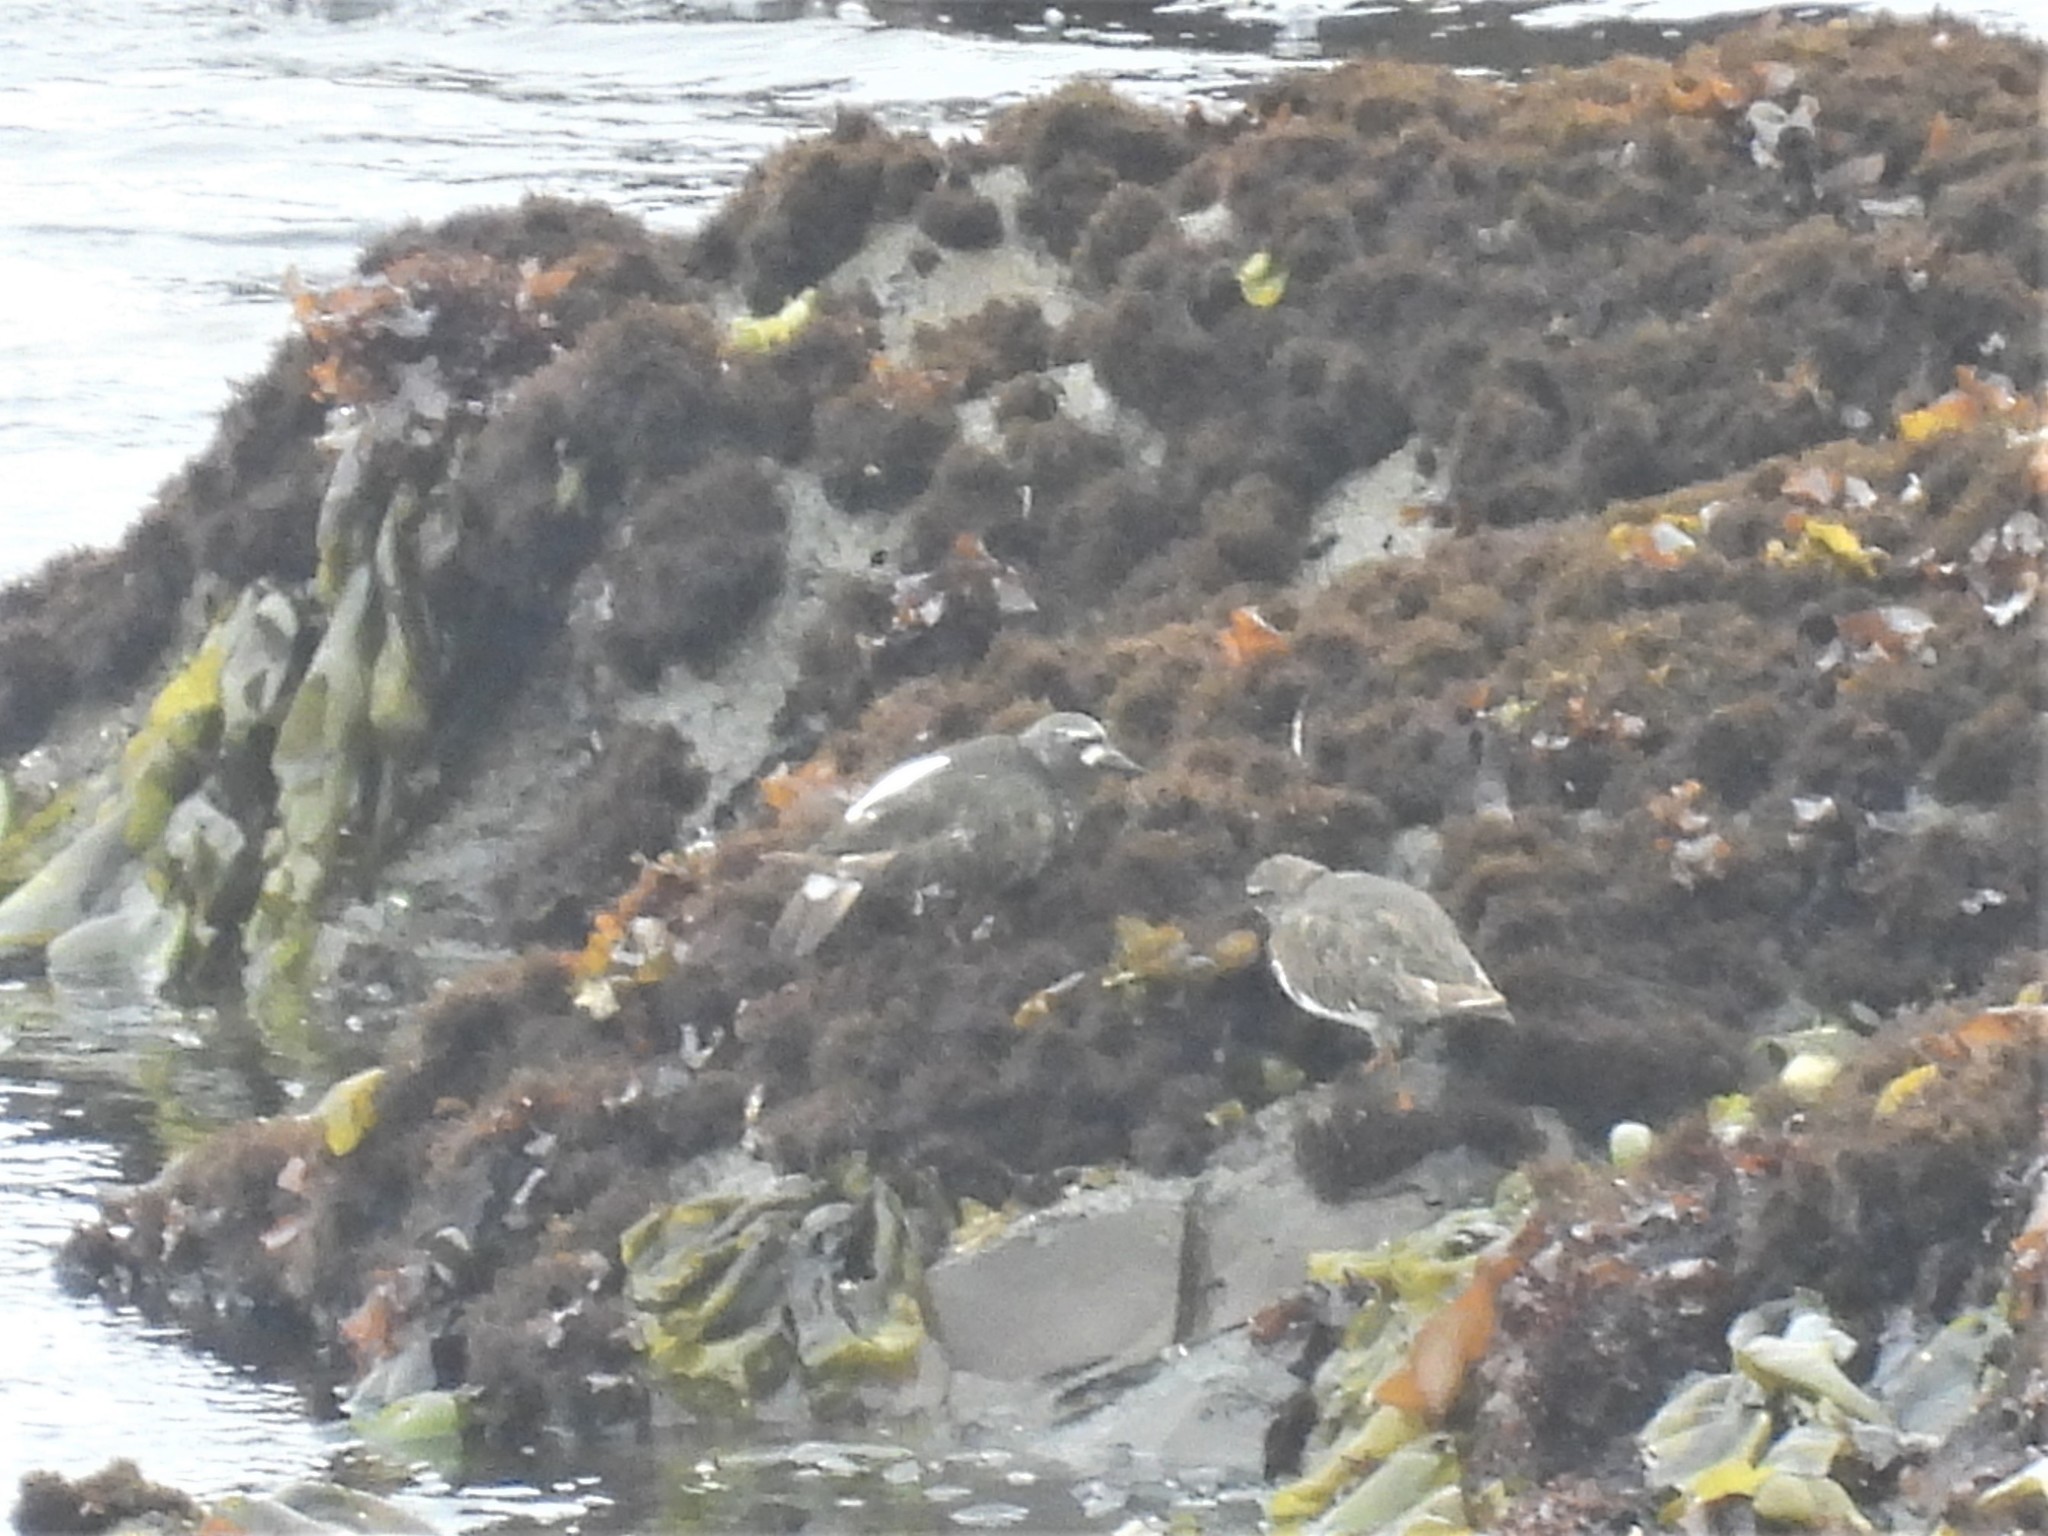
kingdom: Animalia
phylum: Chordata
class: Aves
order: Charadriiformes
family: Scolopacidae
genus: Arenaria
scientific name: Arenaria melanocephala
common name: Black turnstone
